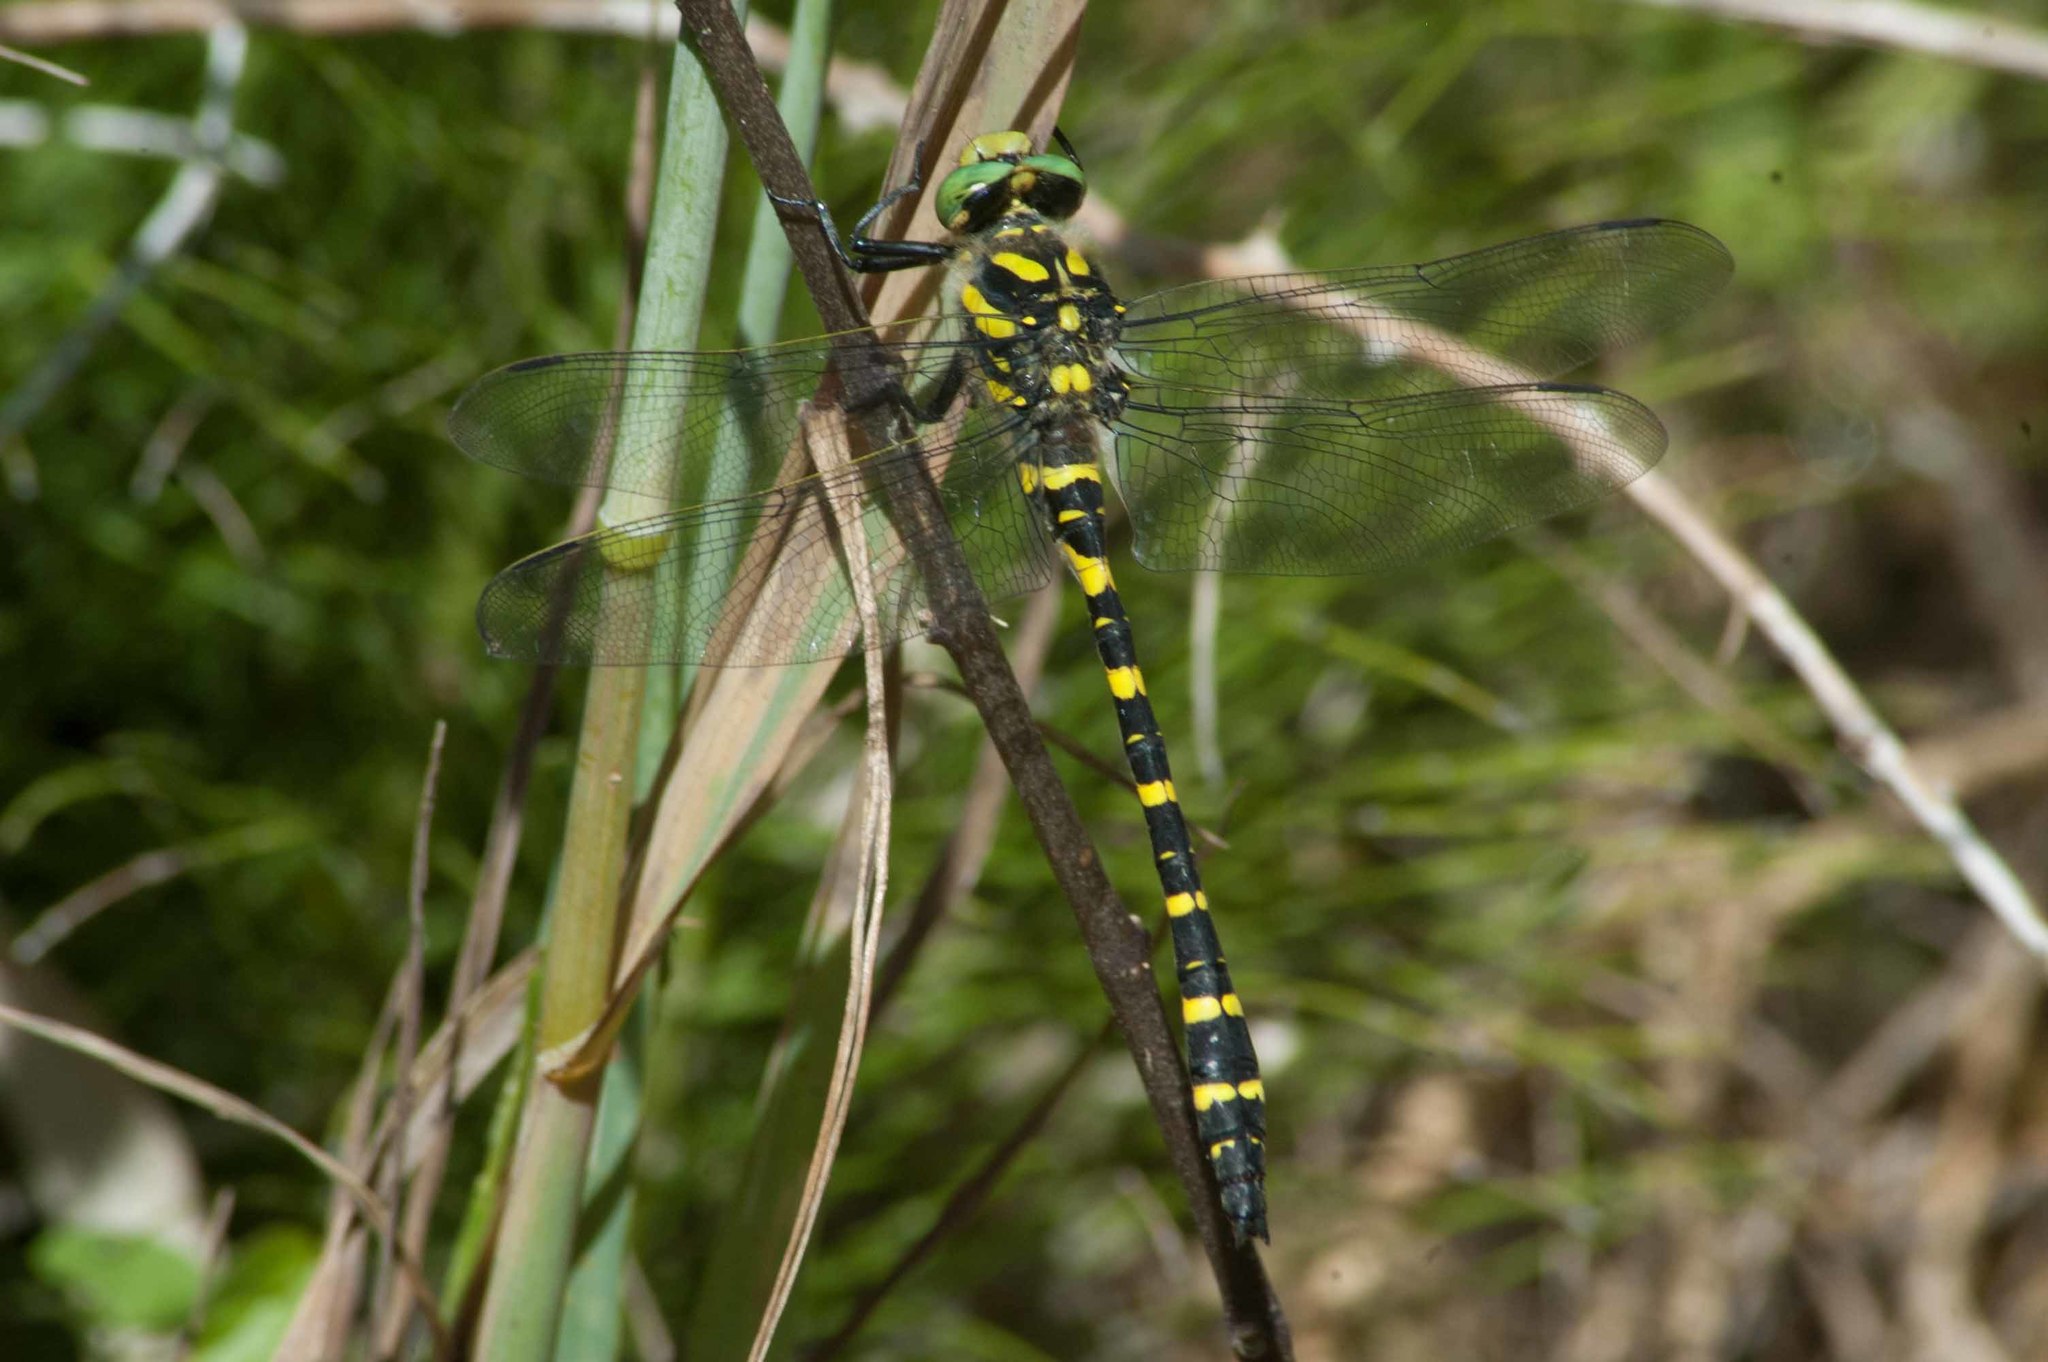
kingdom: Animalia
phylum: Arthropoda
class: Insecta
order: Odonata
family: Cordulegastridae
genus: Cordulegaster
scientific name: Cordulegaster boltonii
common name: Golden-ringed dragonfly
